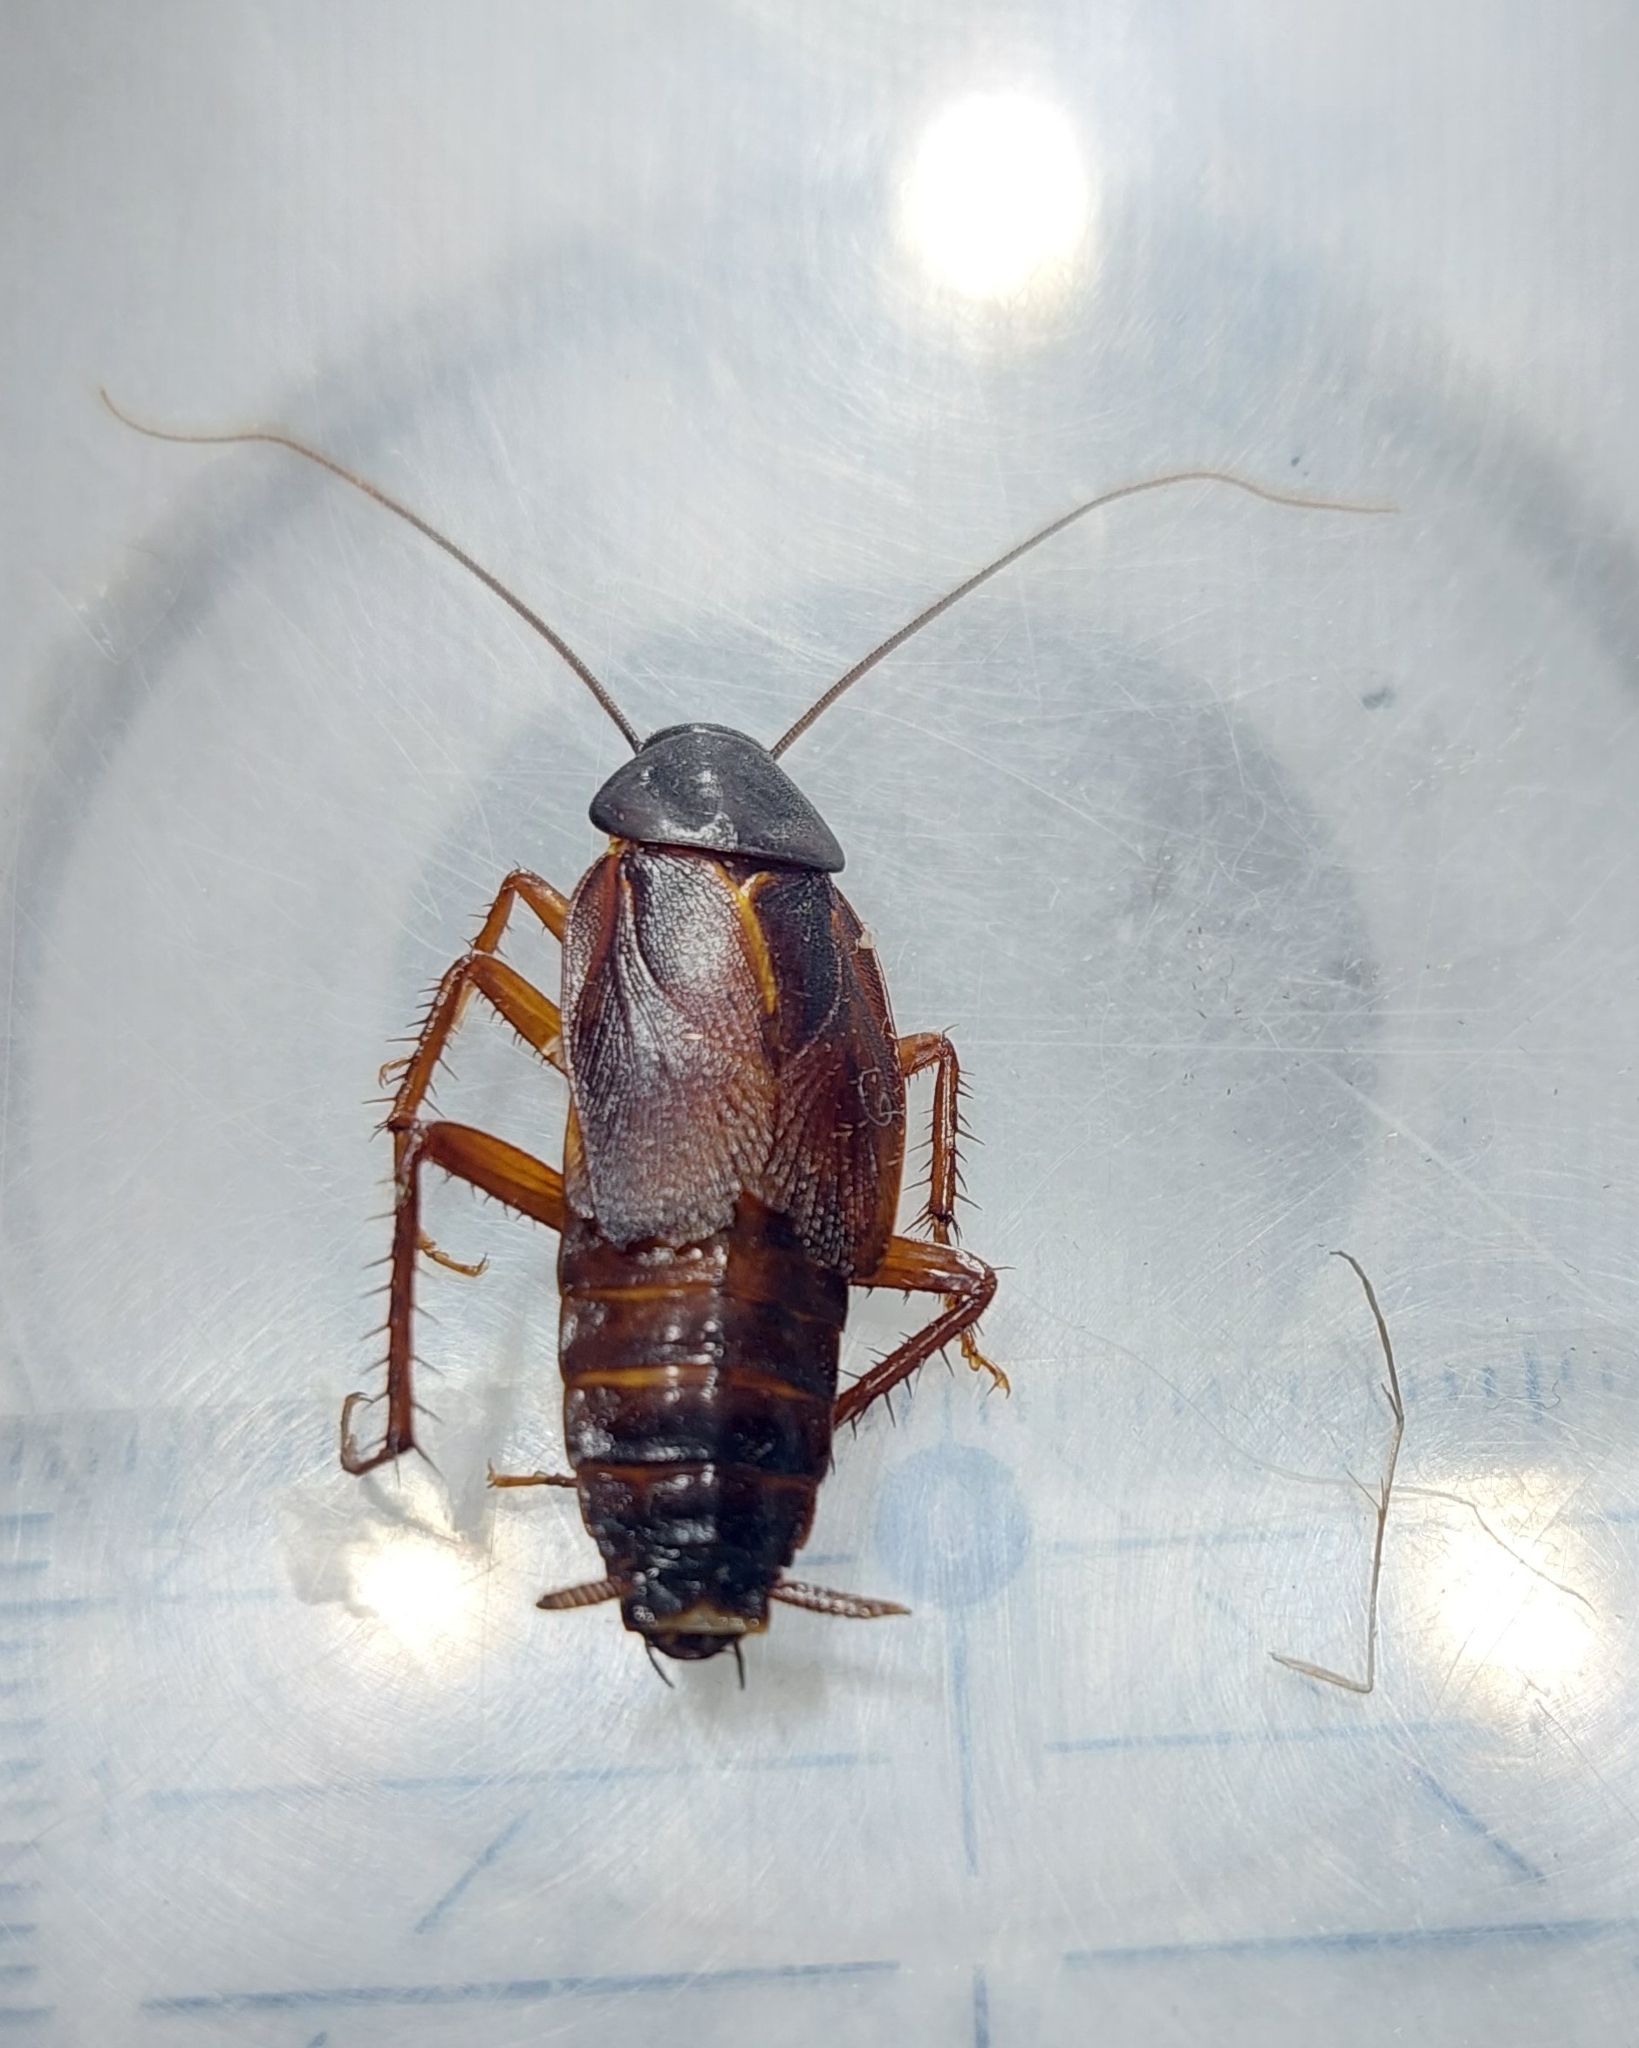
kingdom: Animalia
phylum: Arthropoda
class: Insecta
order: Blattodea
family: Blattidae
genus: Blatta
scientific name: Blatta orientalis
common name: Oriental cockroach
